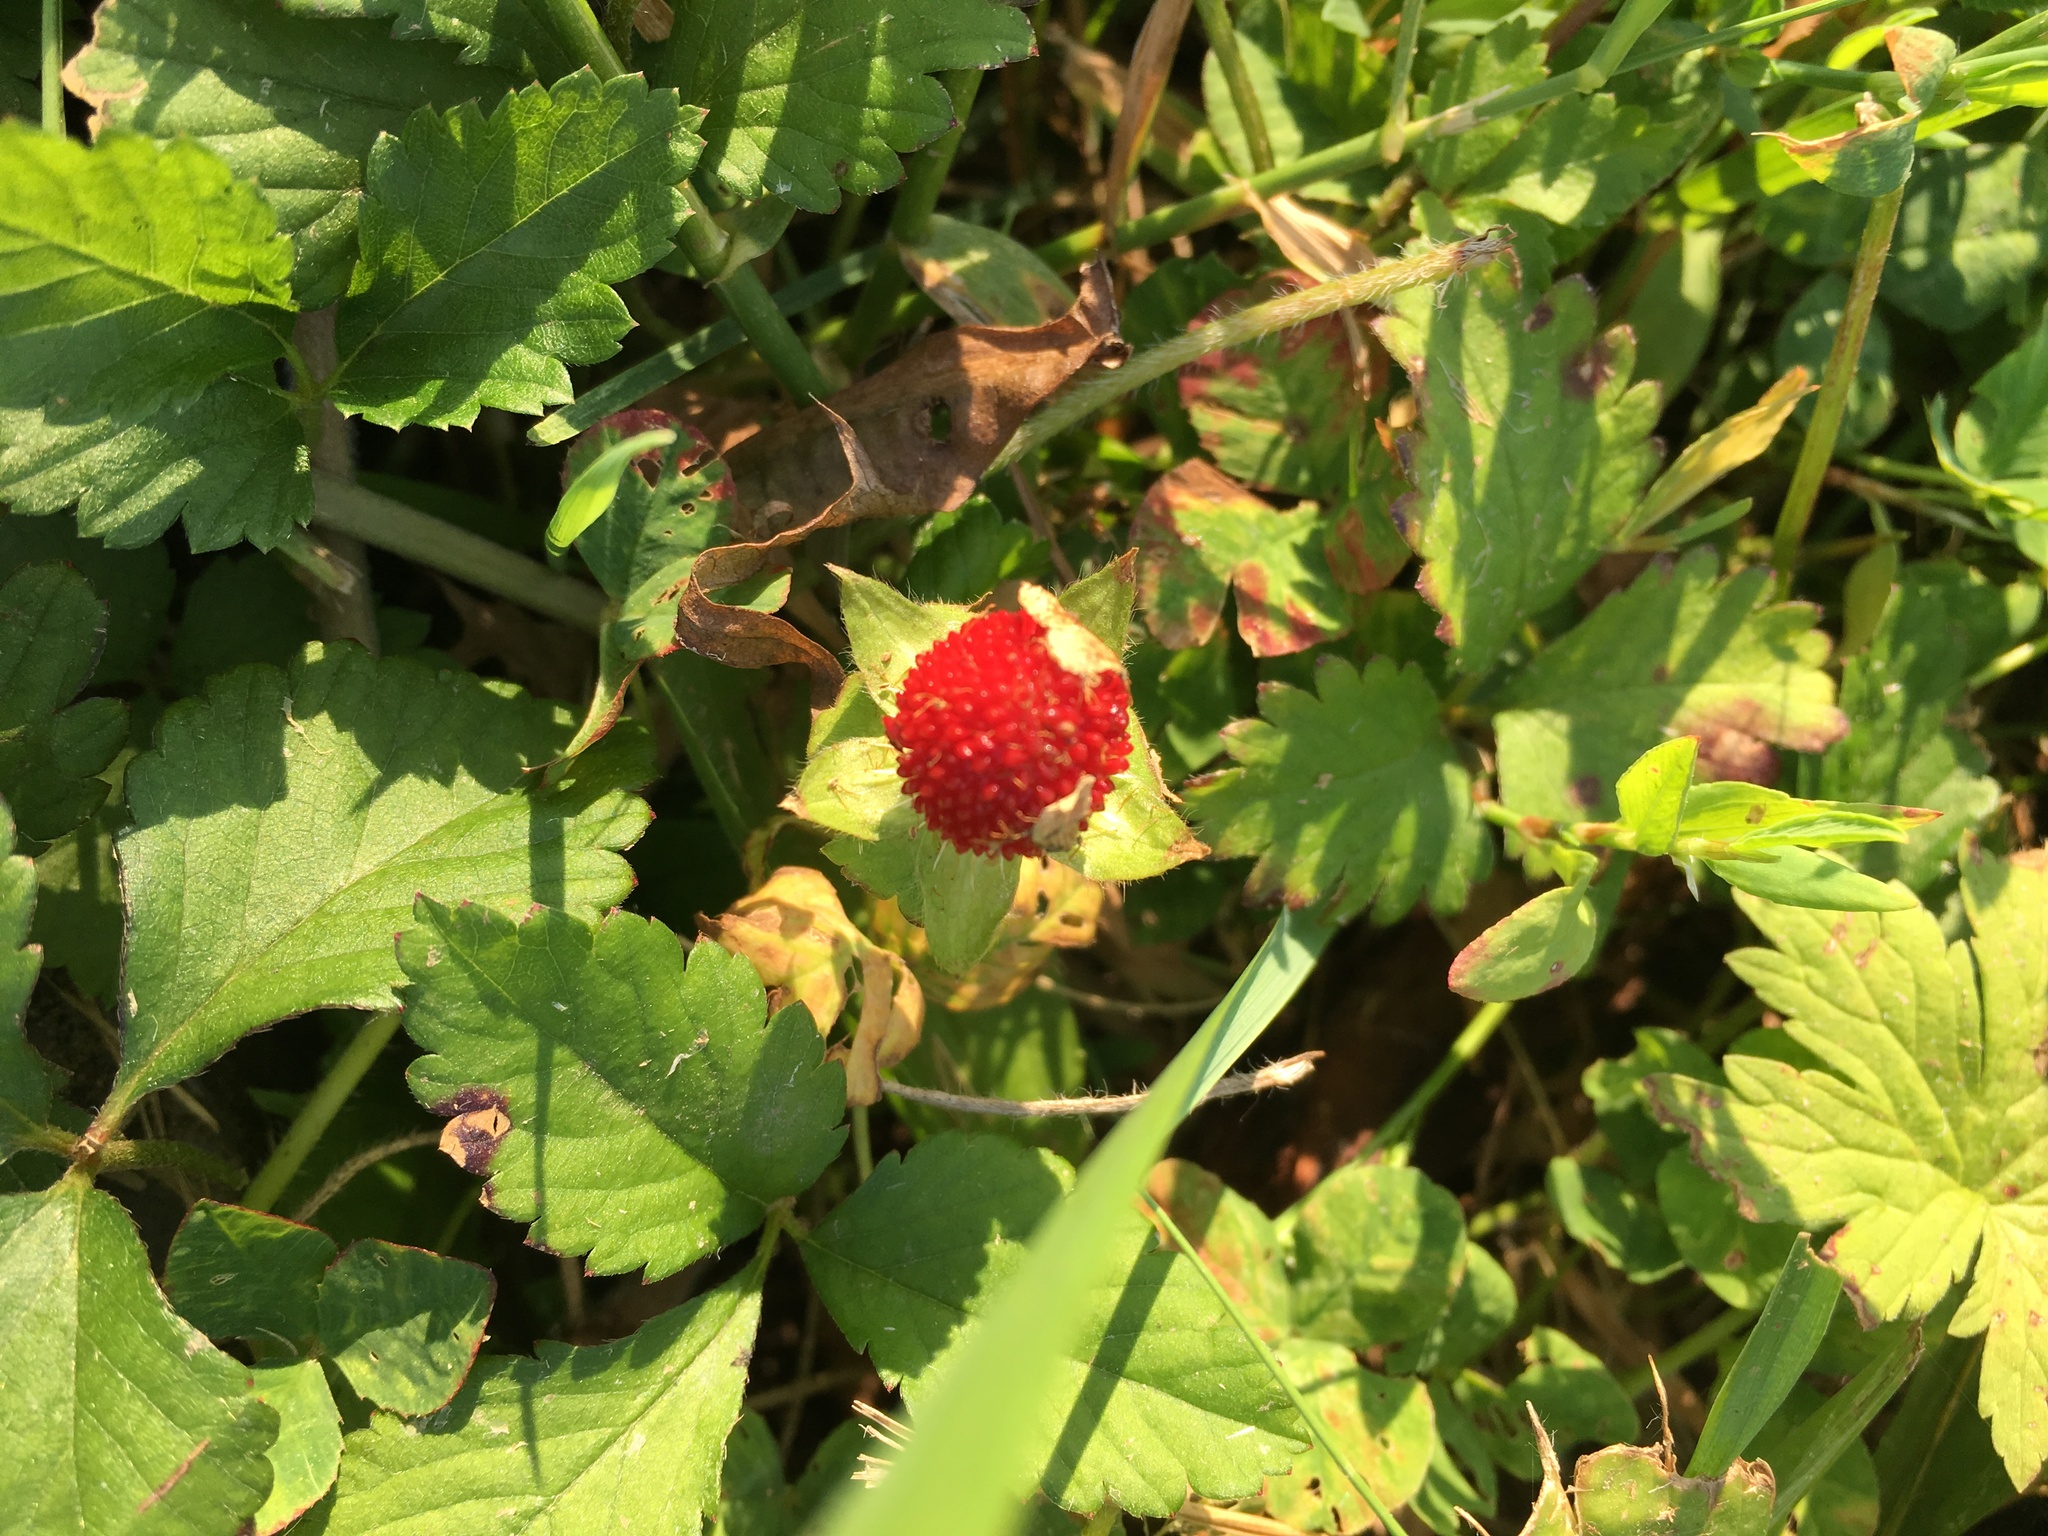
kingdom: Plantae
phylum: Tracheophyta
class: Magnoliopsida
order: Rosales
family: Rosaceae
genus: Potentilla
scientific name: Potentilla indica
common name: Yellow-flowered strawberry
